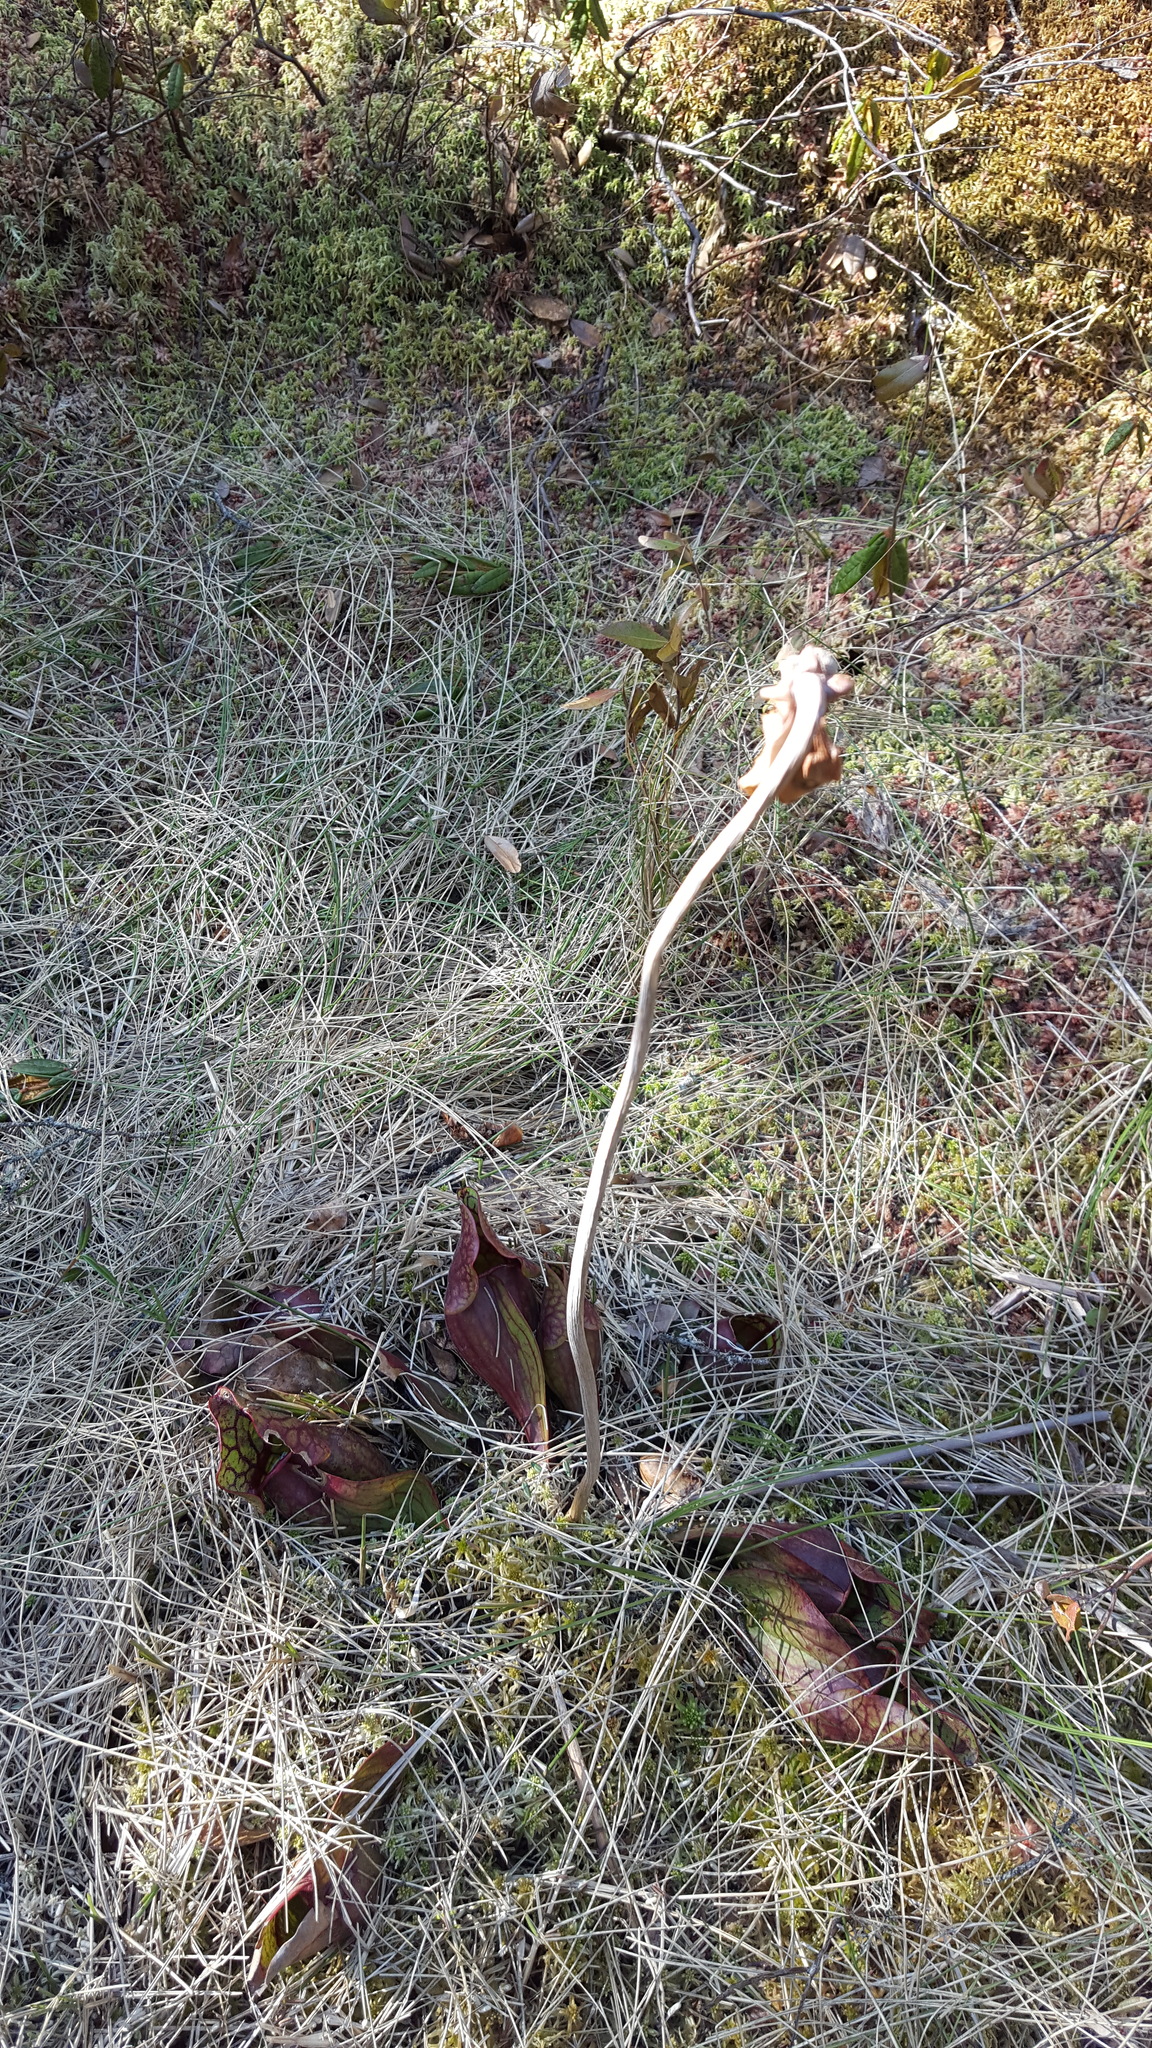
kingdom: Plantae
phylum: Tracheophyta
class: Magnoliopsida
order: Ericales
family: Sarraceniaceae
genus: Sarracenia
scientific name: Sarracenia purpurea
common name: Pitcherplant
